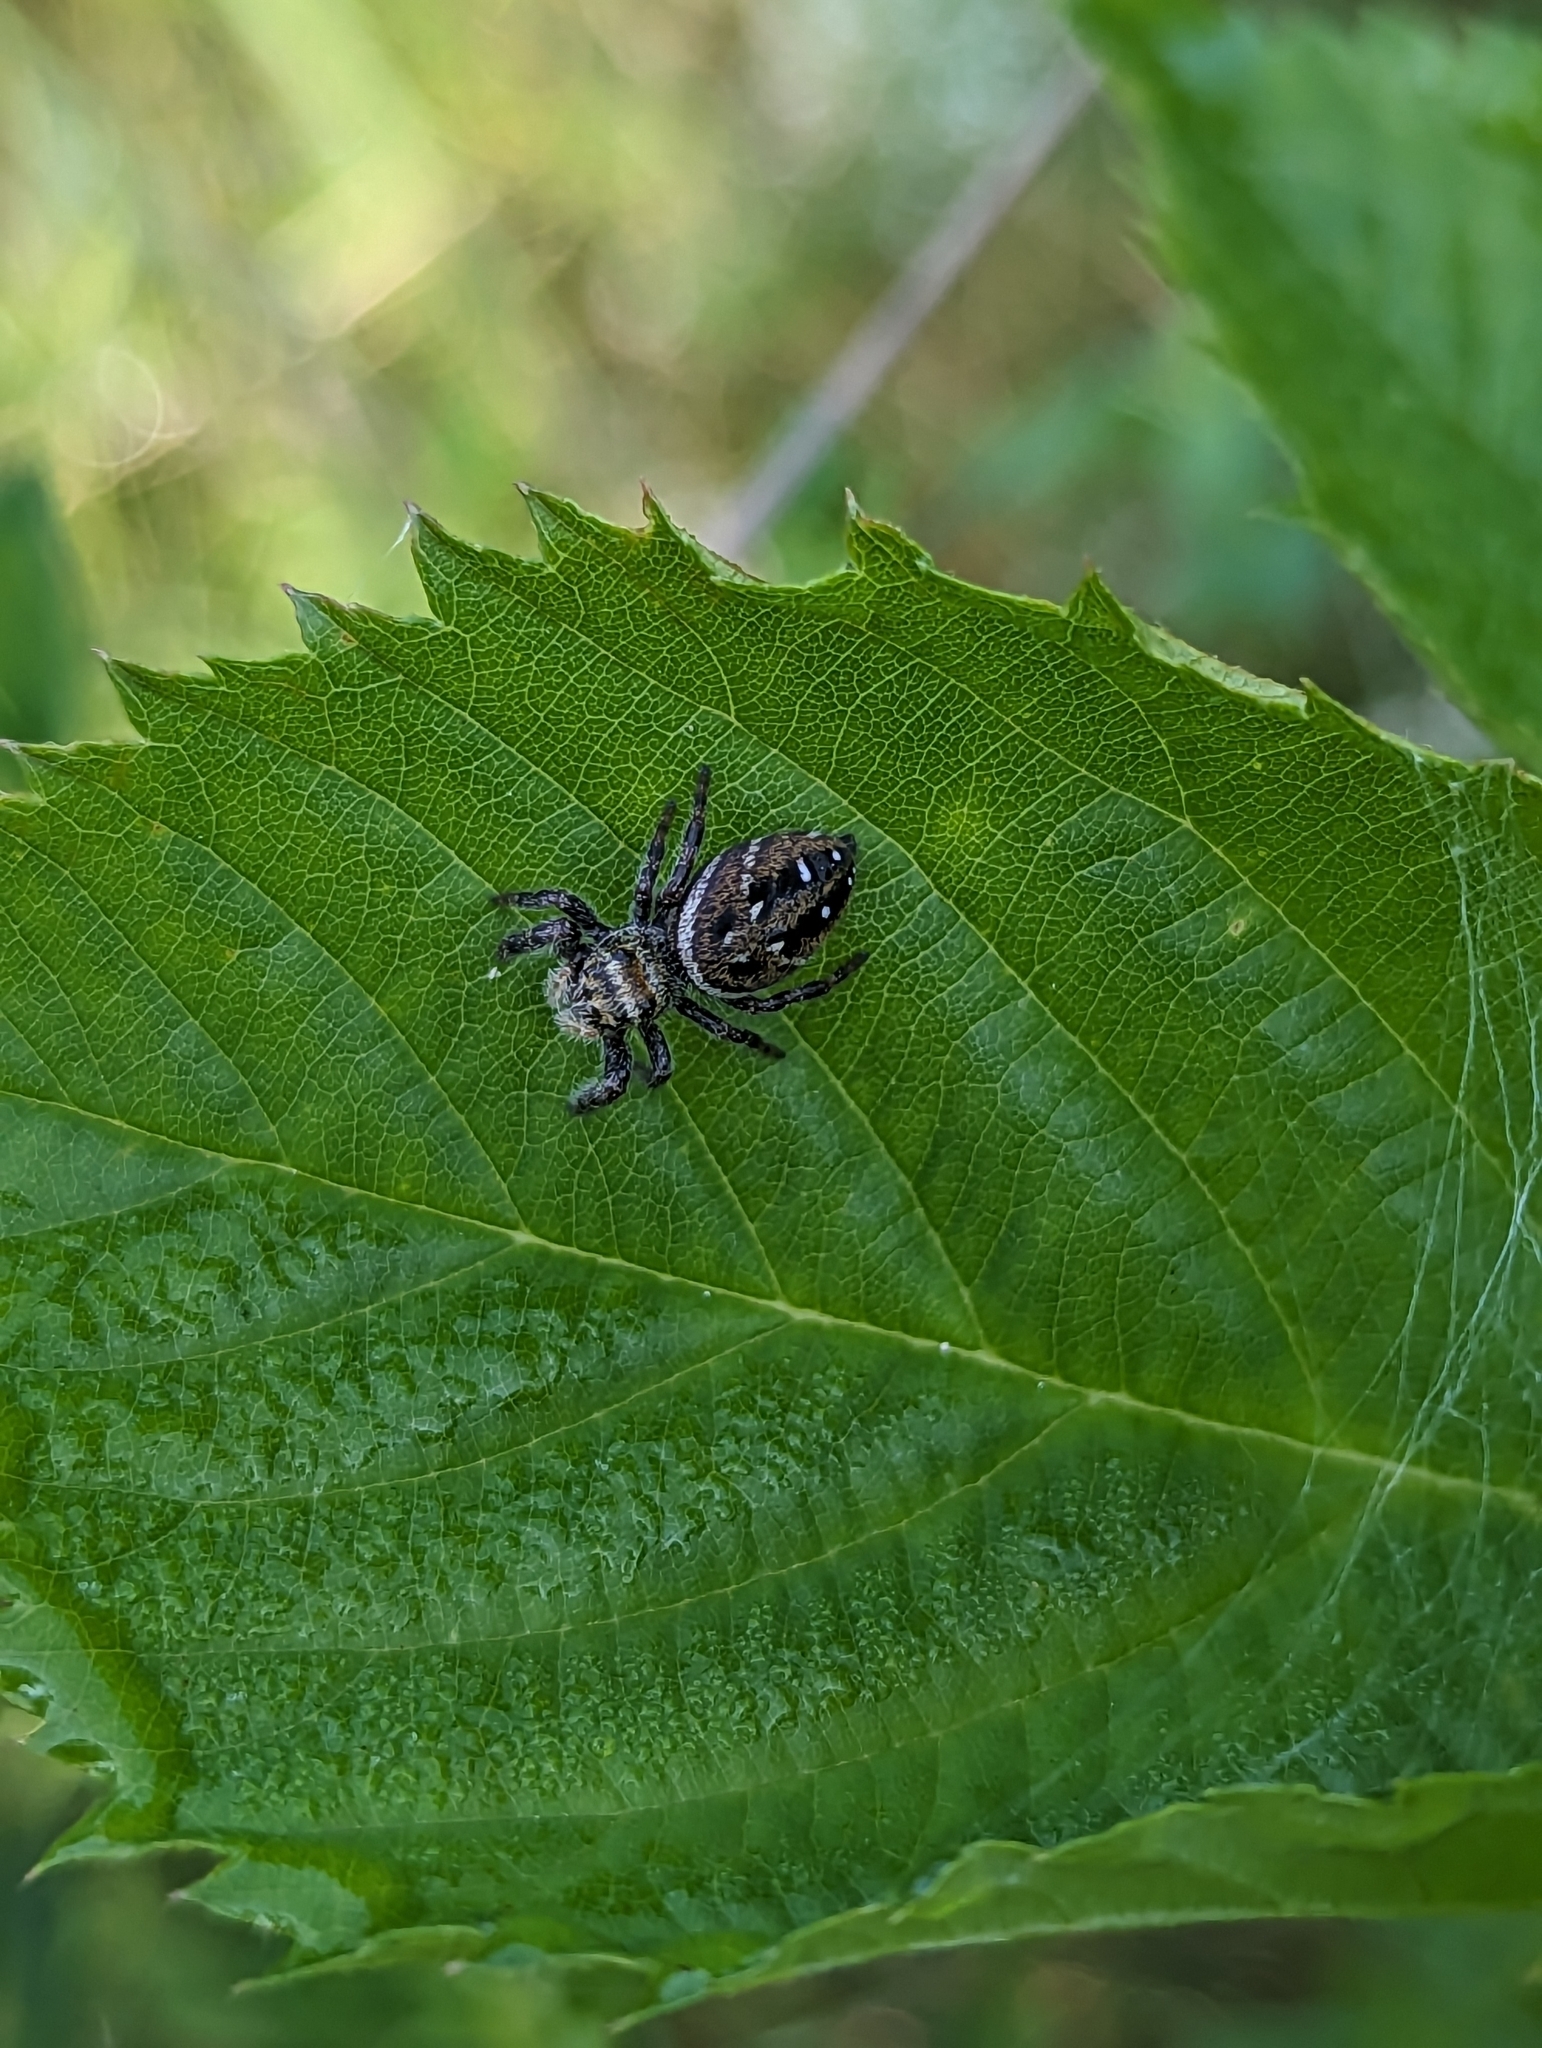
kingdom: Animalia
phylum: Arthropoda
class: Arachnida
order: Araneae
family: Salticidae
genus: Phidippus
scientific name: Phidippus clarus
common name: Brilliant jumping spider
